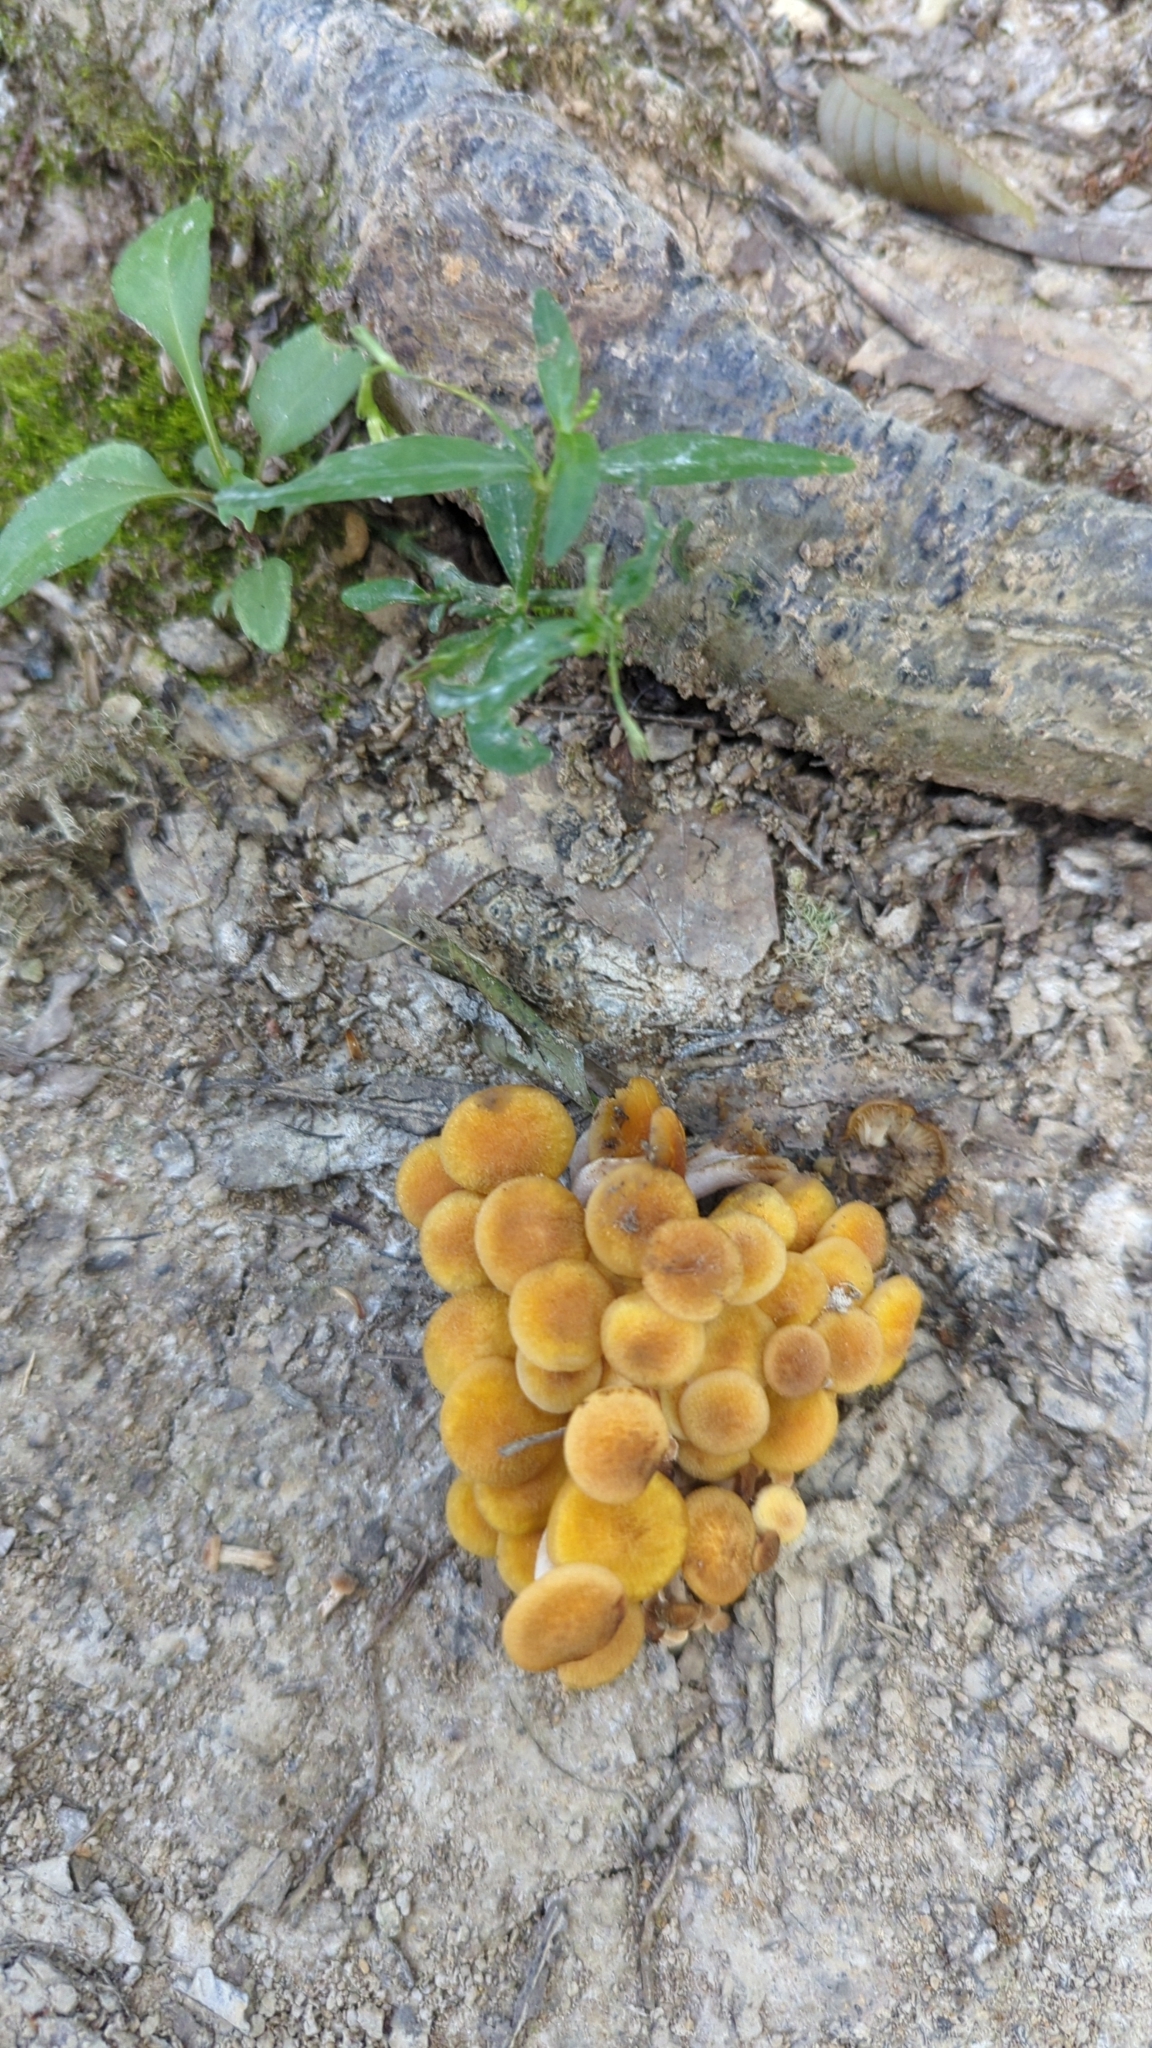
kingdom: Fungi
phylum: Basidiomycota
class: Agaricomycetes
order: Agaricales
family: Physalacriaceae
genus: Desarmillaria
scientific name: Desarmillaria caespitosa
